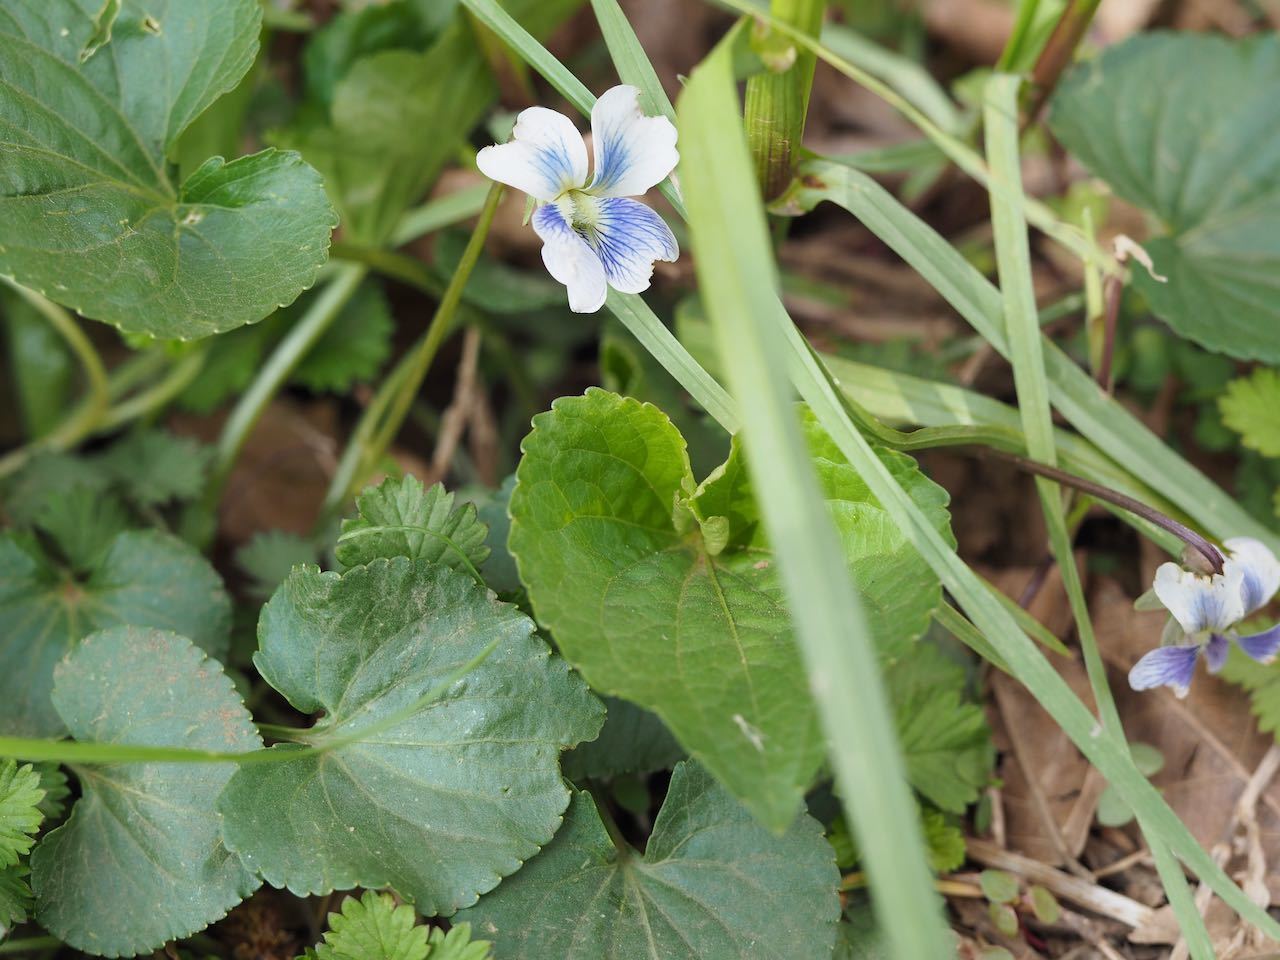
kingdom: Plantae
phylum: Tracheophyta
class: Magnoliopsida
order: Malpighiales
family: Violaceae
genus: Viola
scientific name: Viola sororia
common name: Dooryard violet
